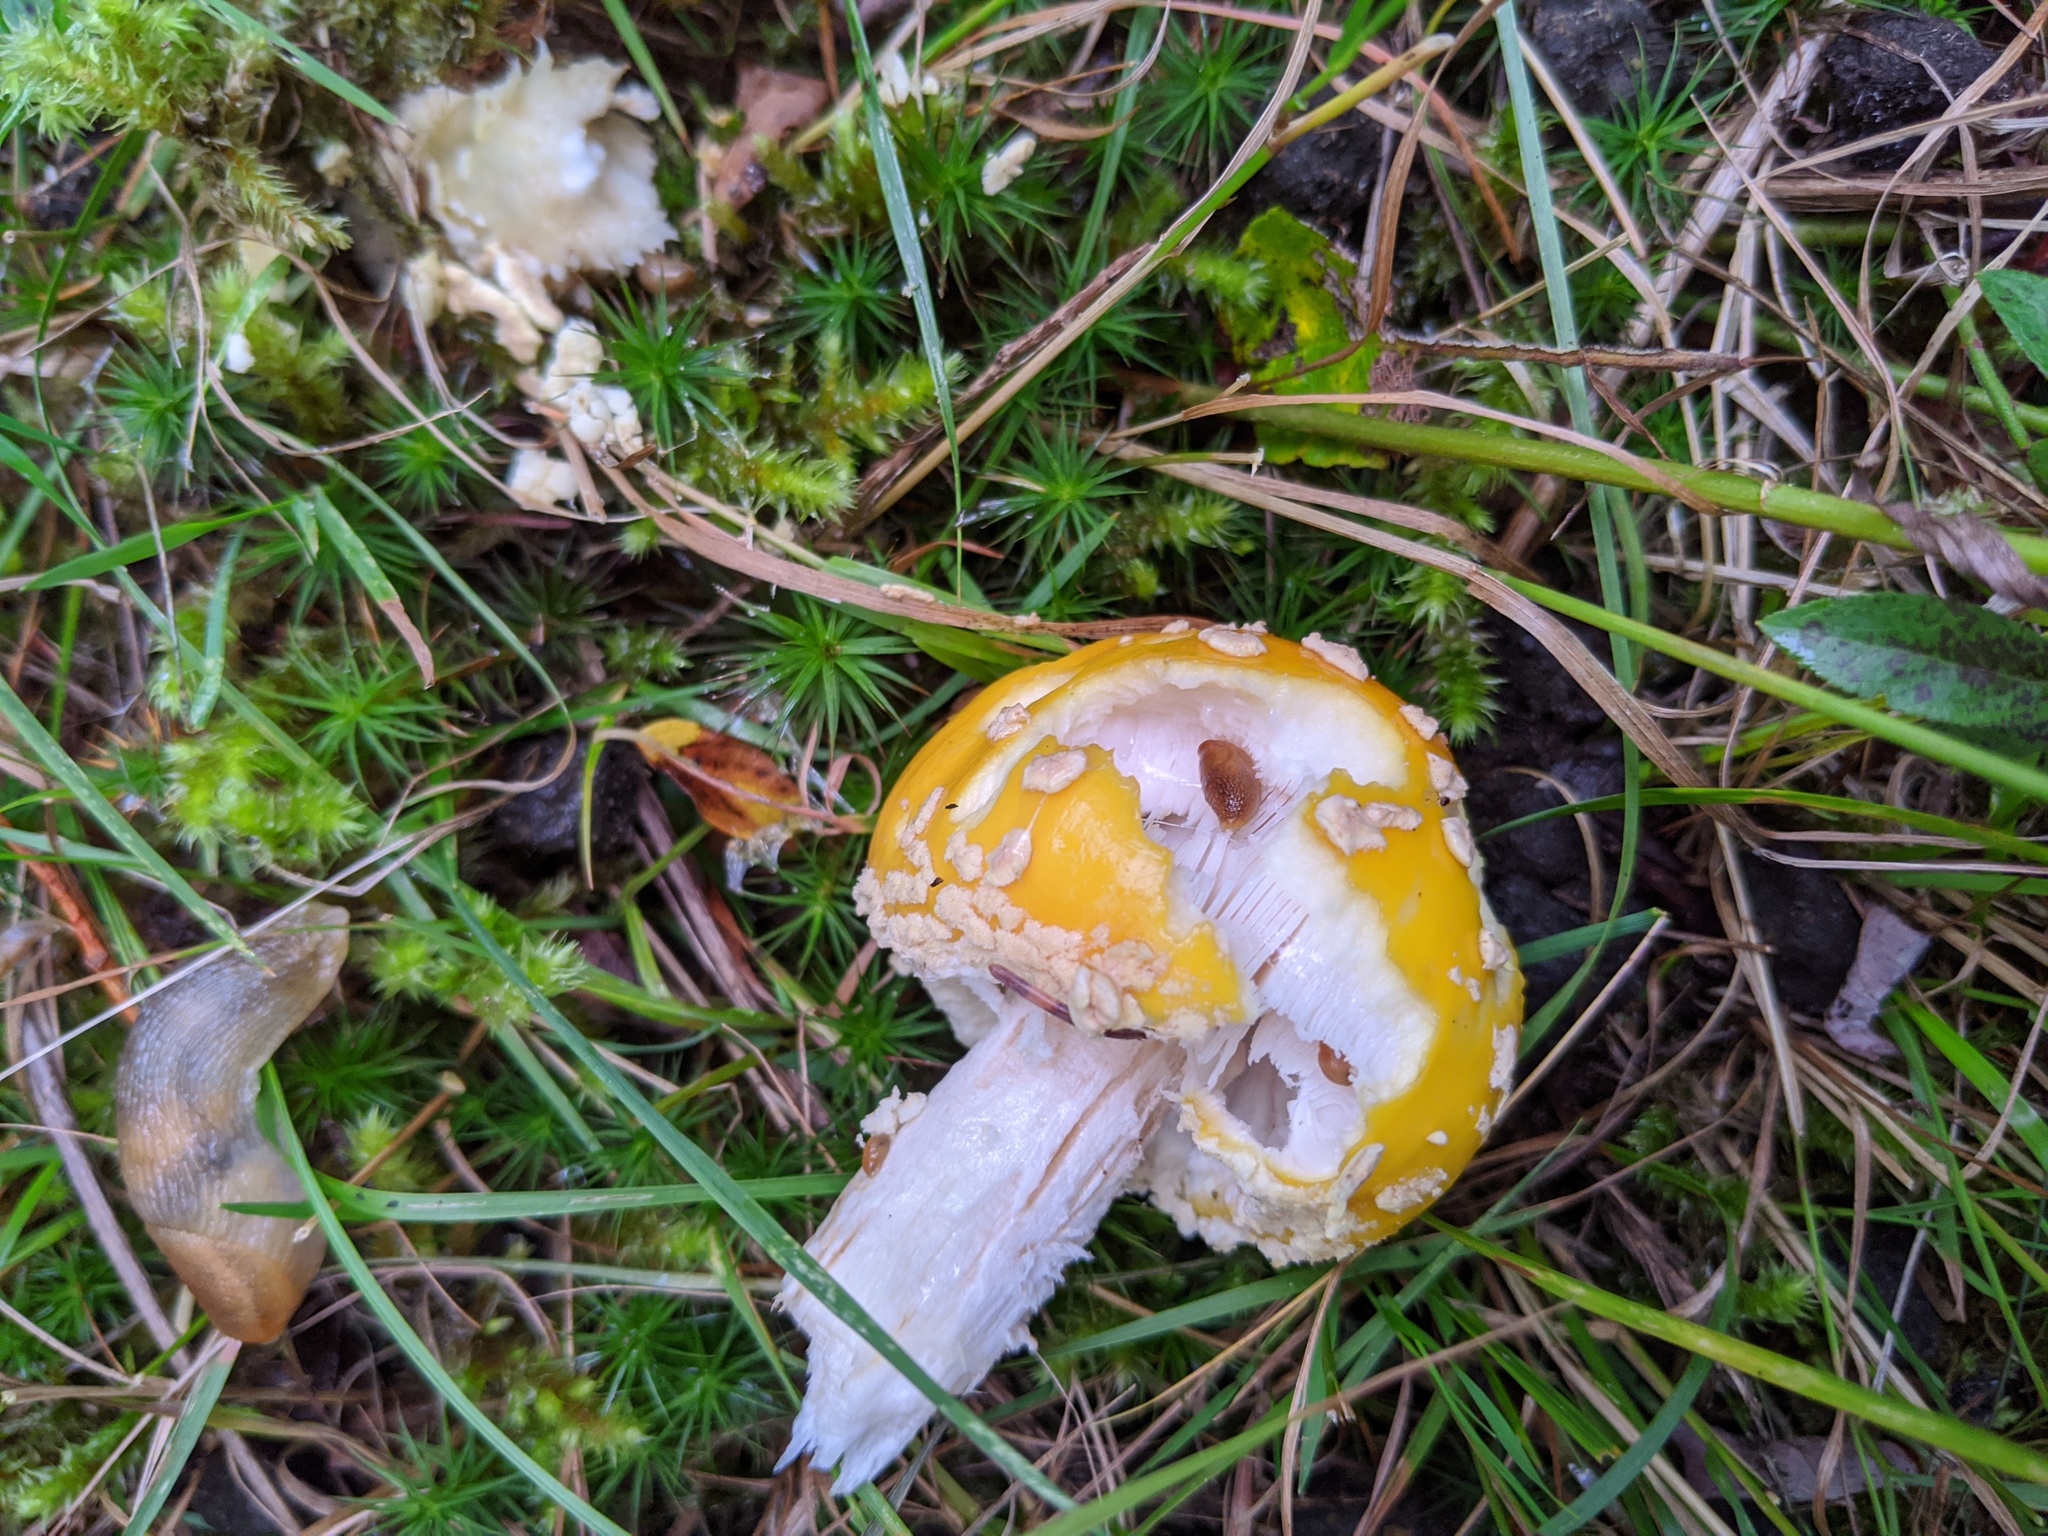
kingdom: Fungi
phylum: Basidiomycota
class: Agaricomycetes
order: Agaricales
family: Amanitaceae
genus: Amanita
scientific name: Amanita muscaria
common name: Fly agaric
